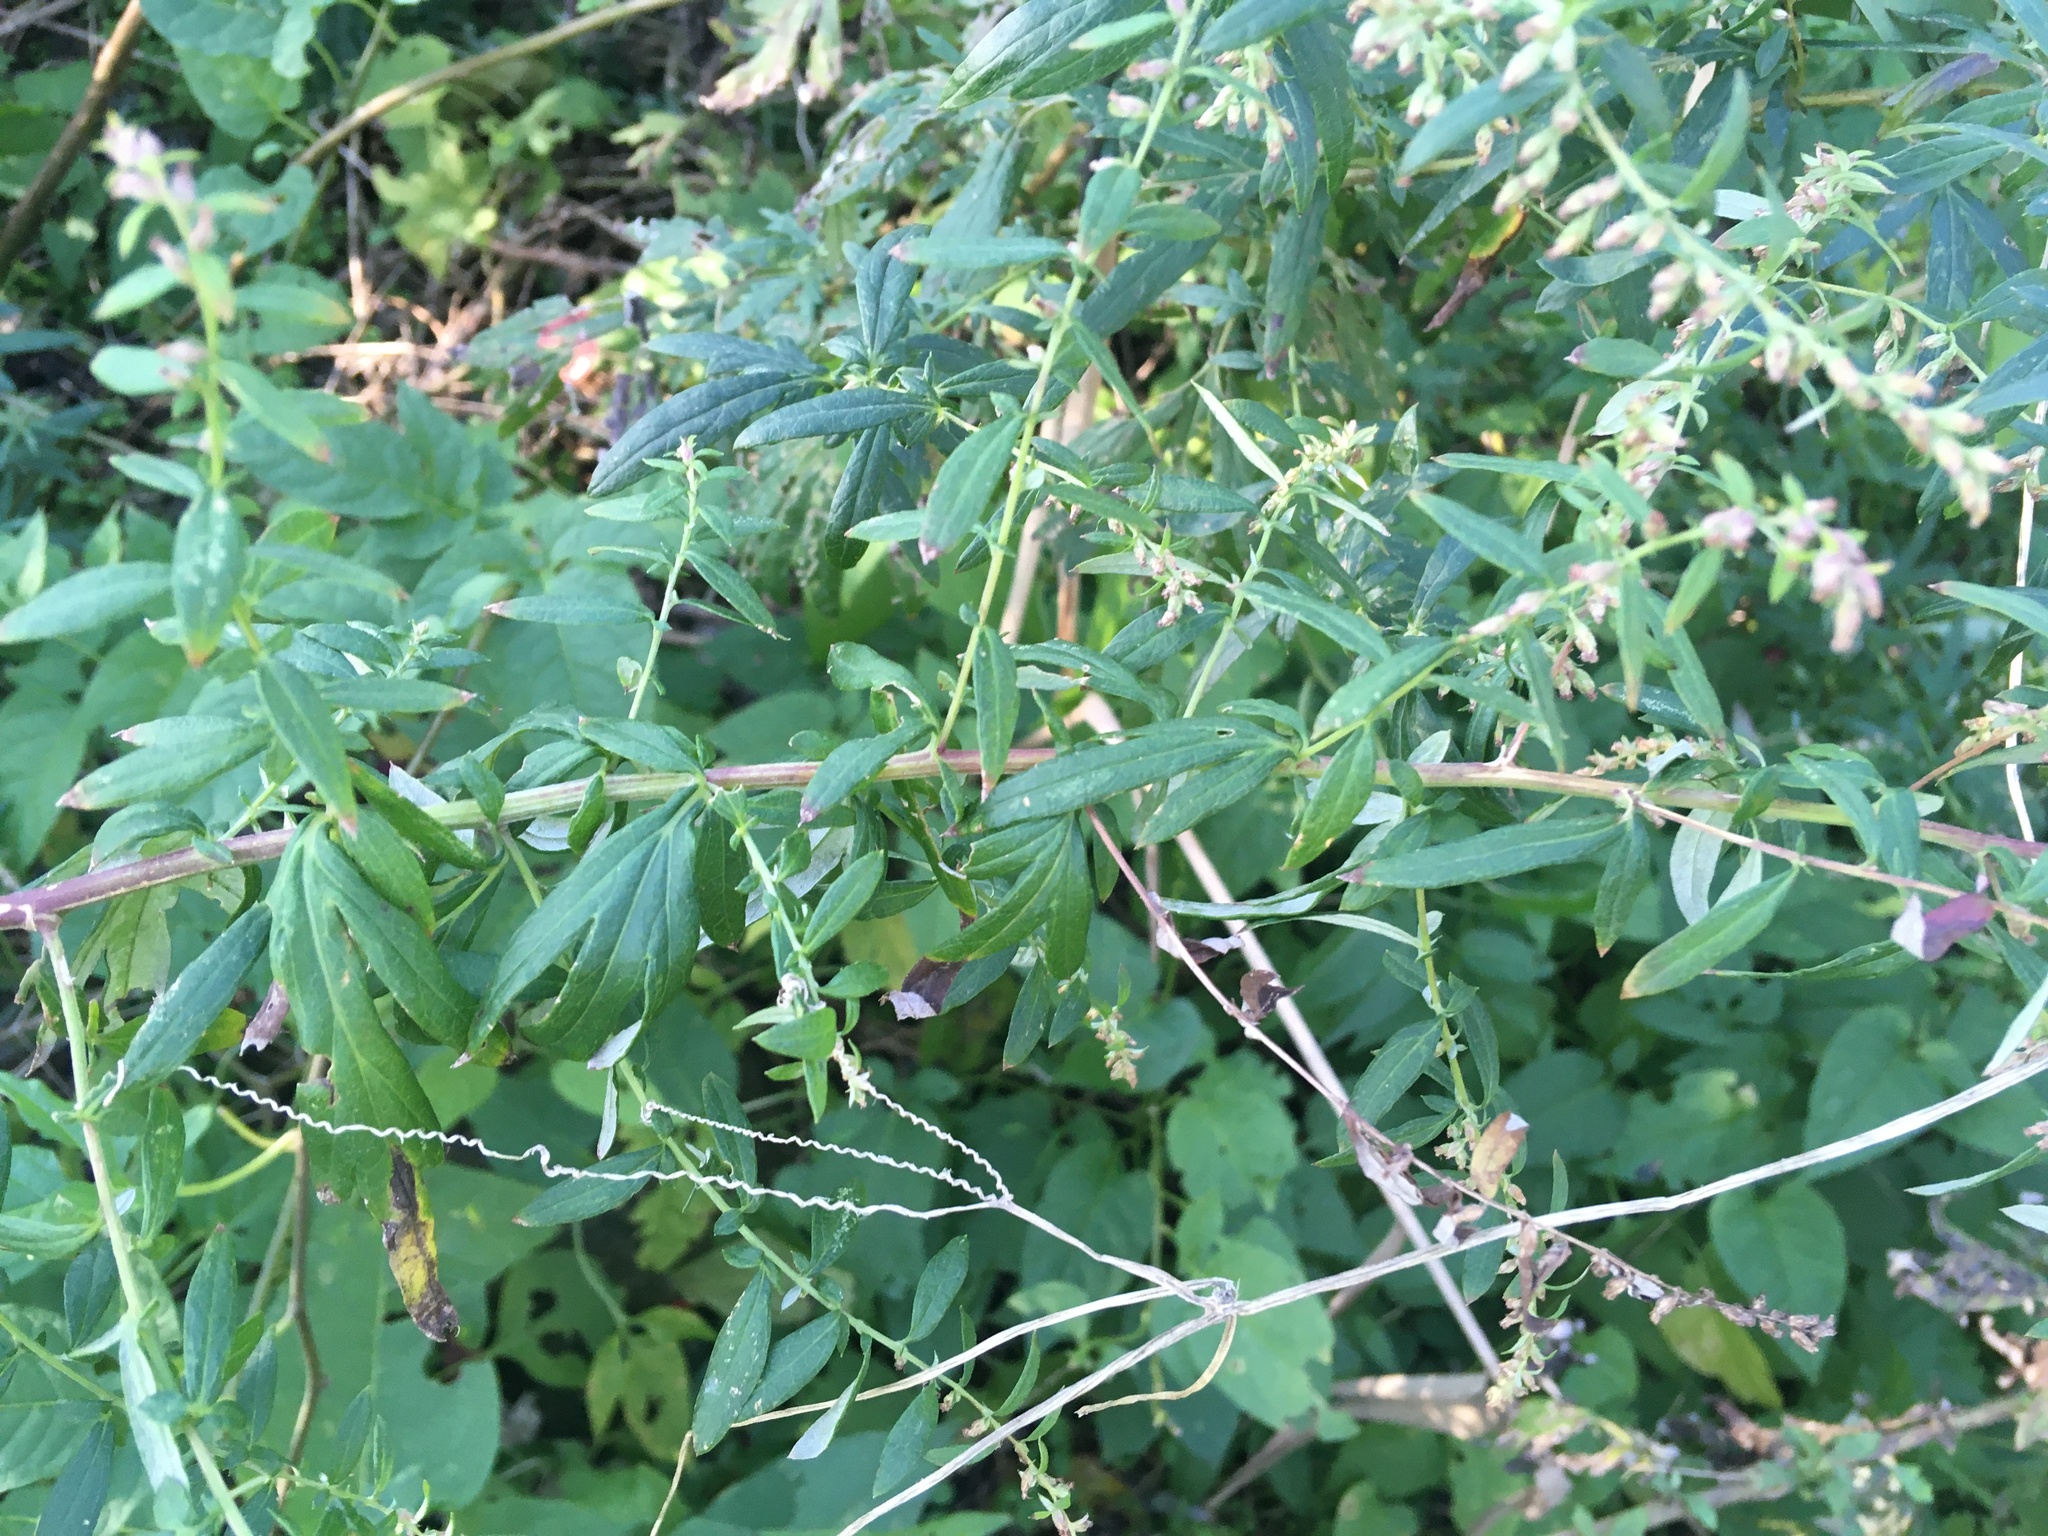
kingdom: Plantae
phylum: Tracheophyta
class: Magnoliopsida
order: Asterales
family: Asteraceae
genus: Artemisia
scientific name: Artemisia vulgaris
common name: Mugwort
